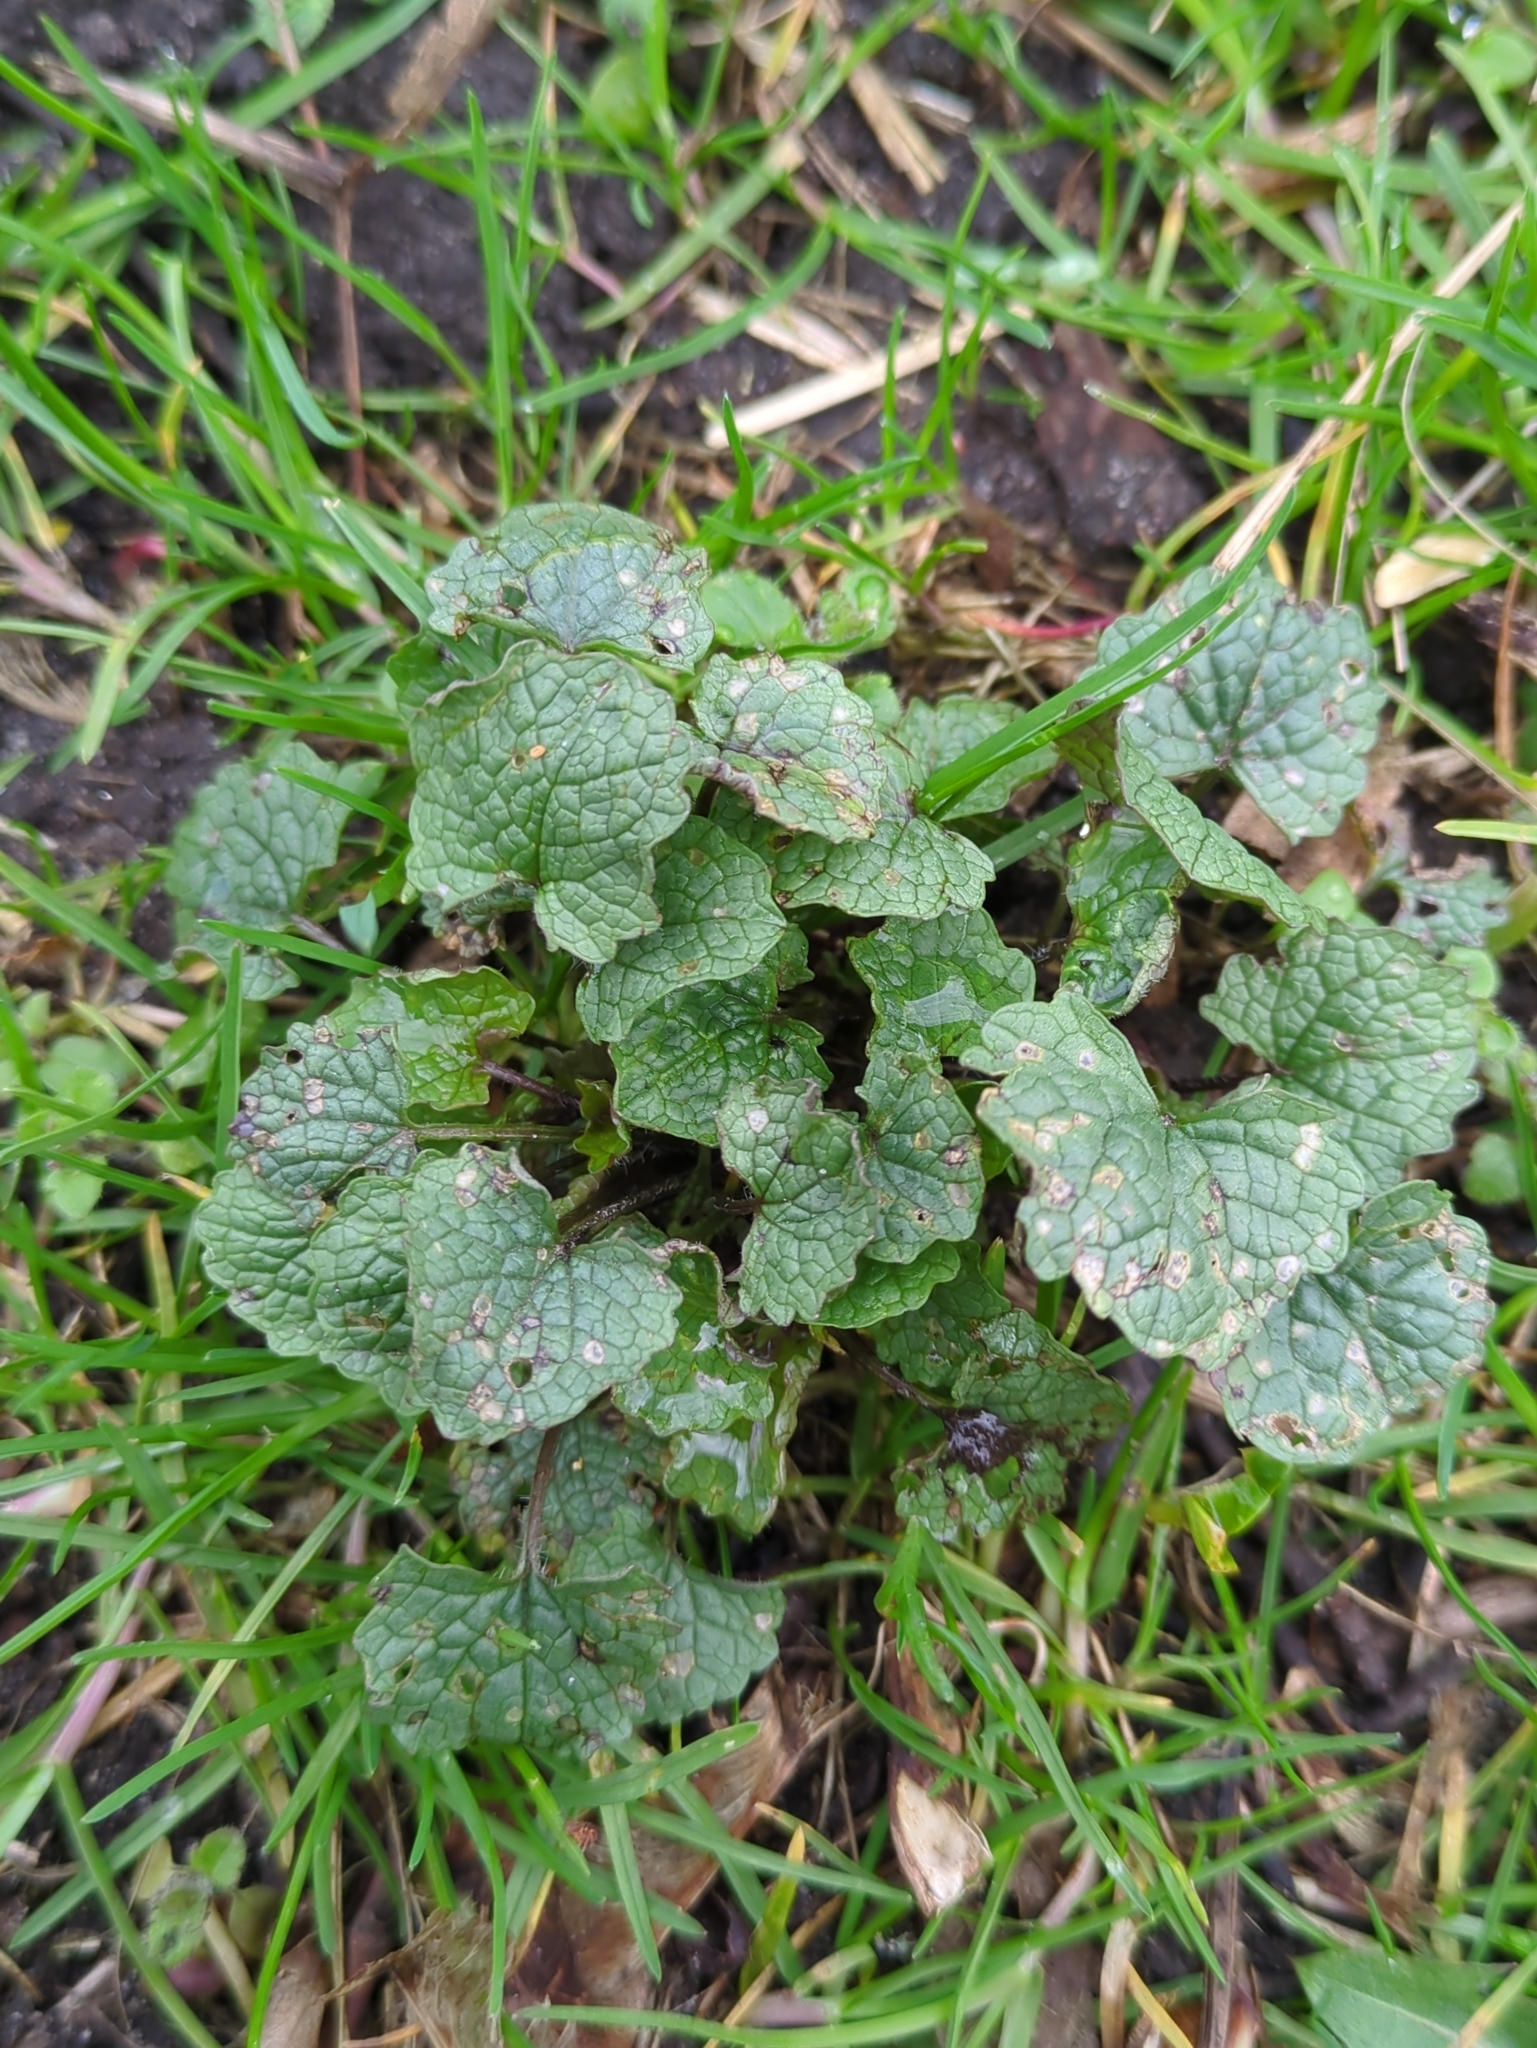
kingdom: Plantae
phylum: Tracheophyta
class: Magnoliopsida
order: Brassicales
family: Brassicaceae
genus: Alliaria
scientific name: Alliaria petiolata
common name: Garlic mustard
